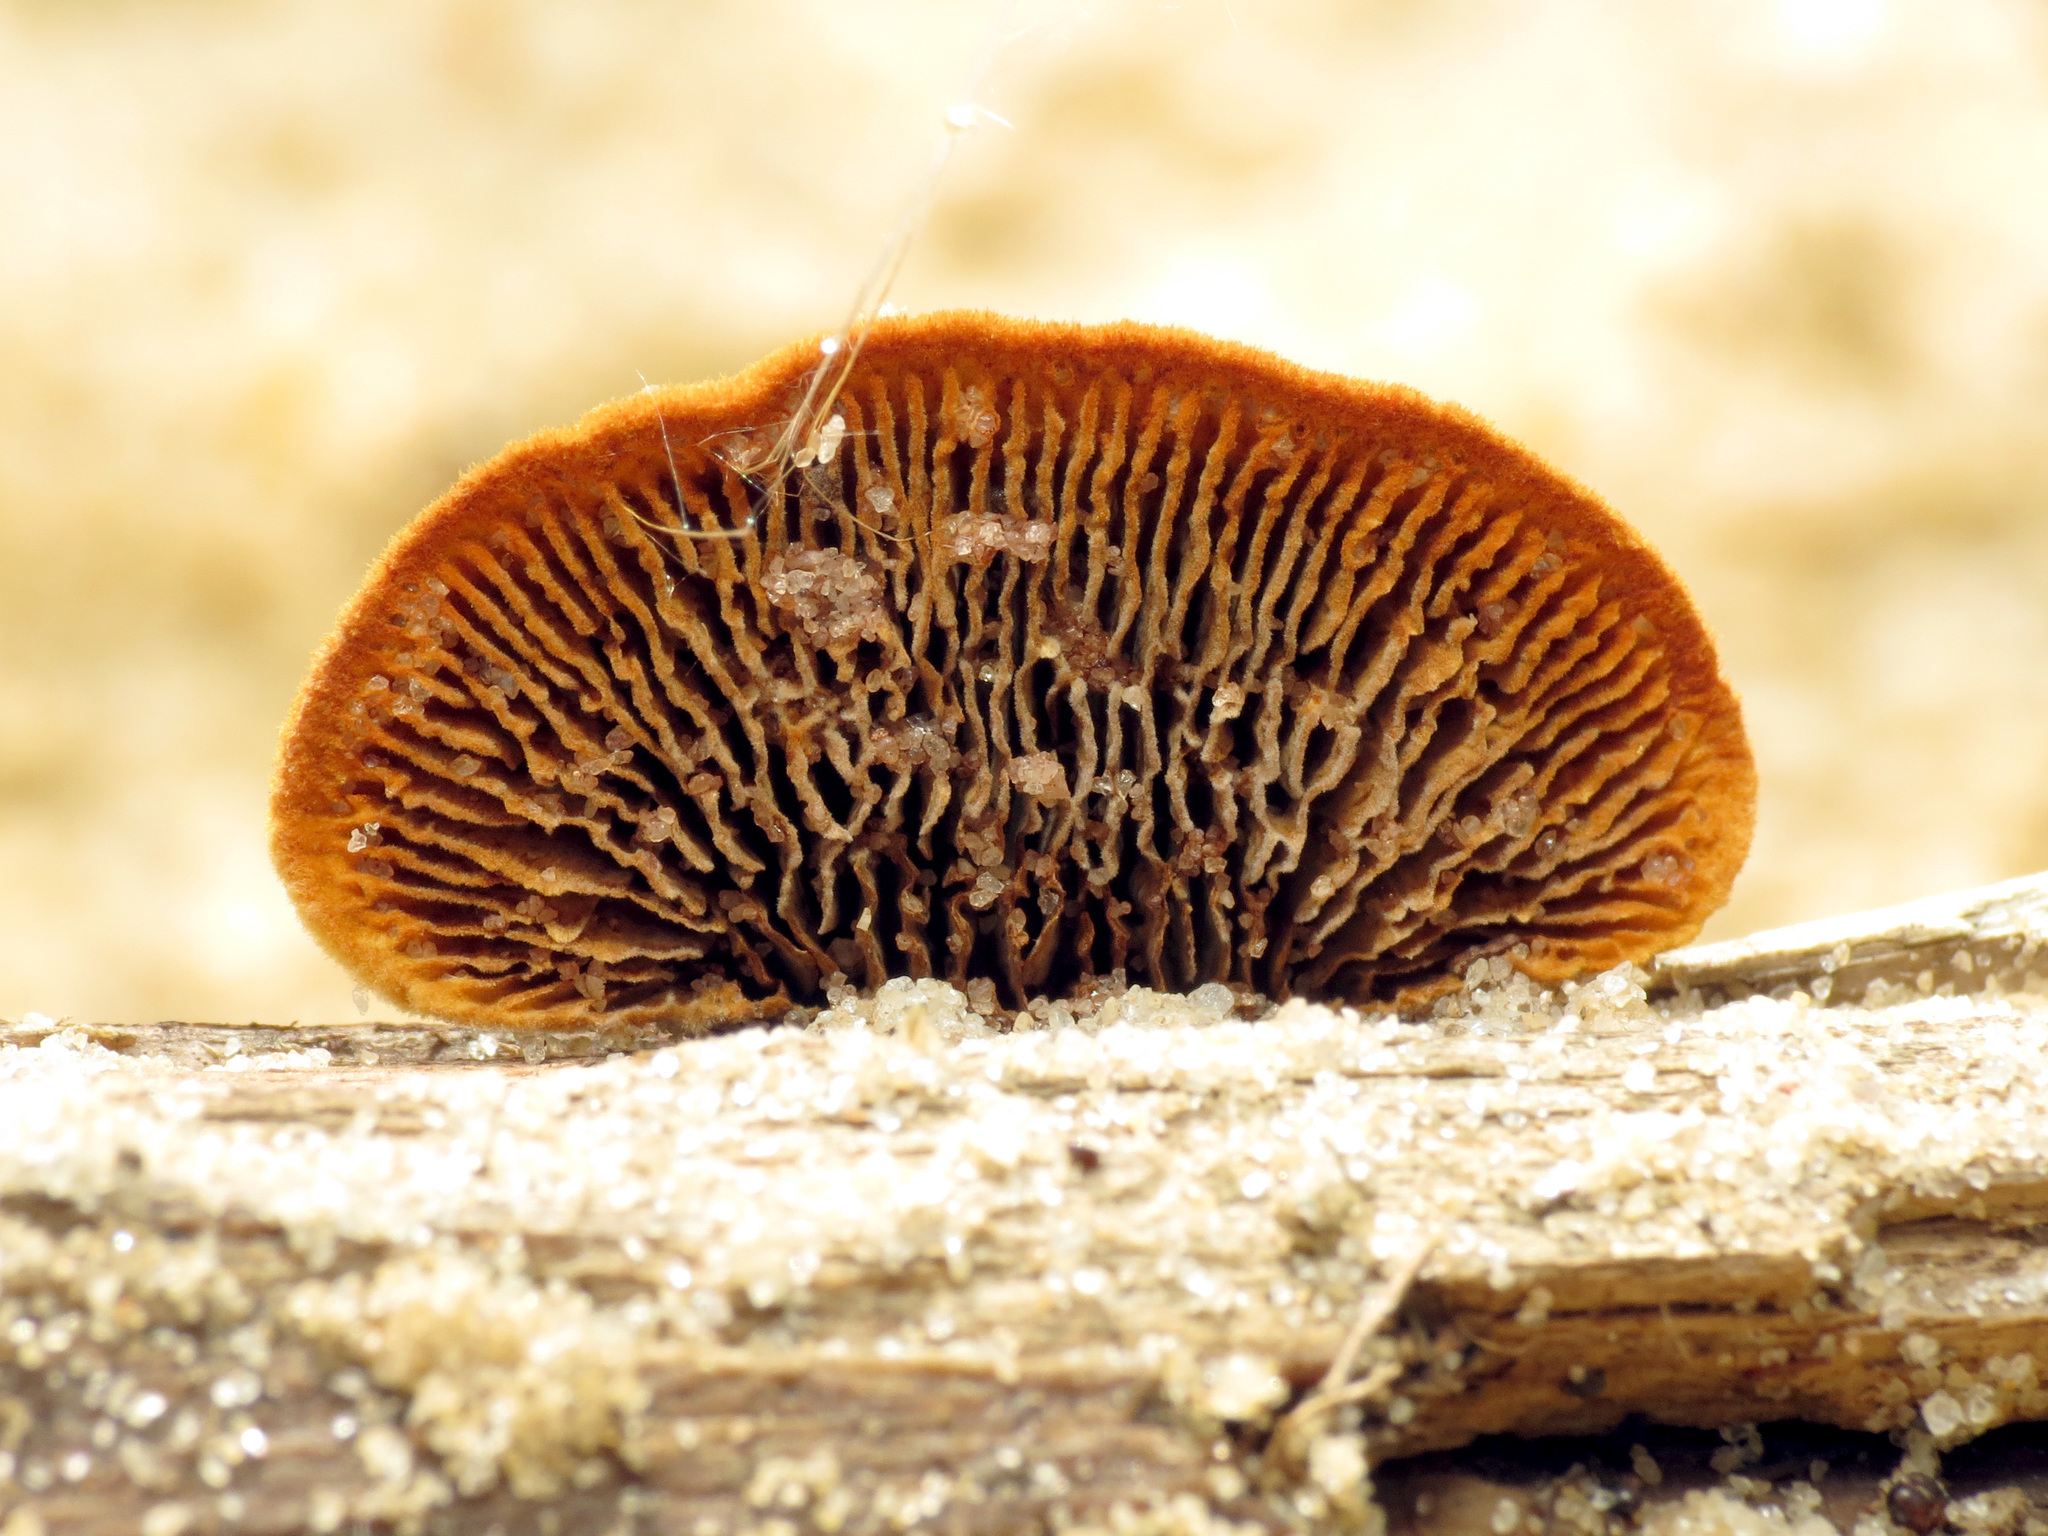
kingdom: Fungi
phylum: Basidiomycota
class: Agaricomycetes
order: Gloeophyllales
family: Gloeophyllaceae
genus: Gloeophyllum
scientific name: Gloeophyllum sepiarium
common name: Conifer mazegill
